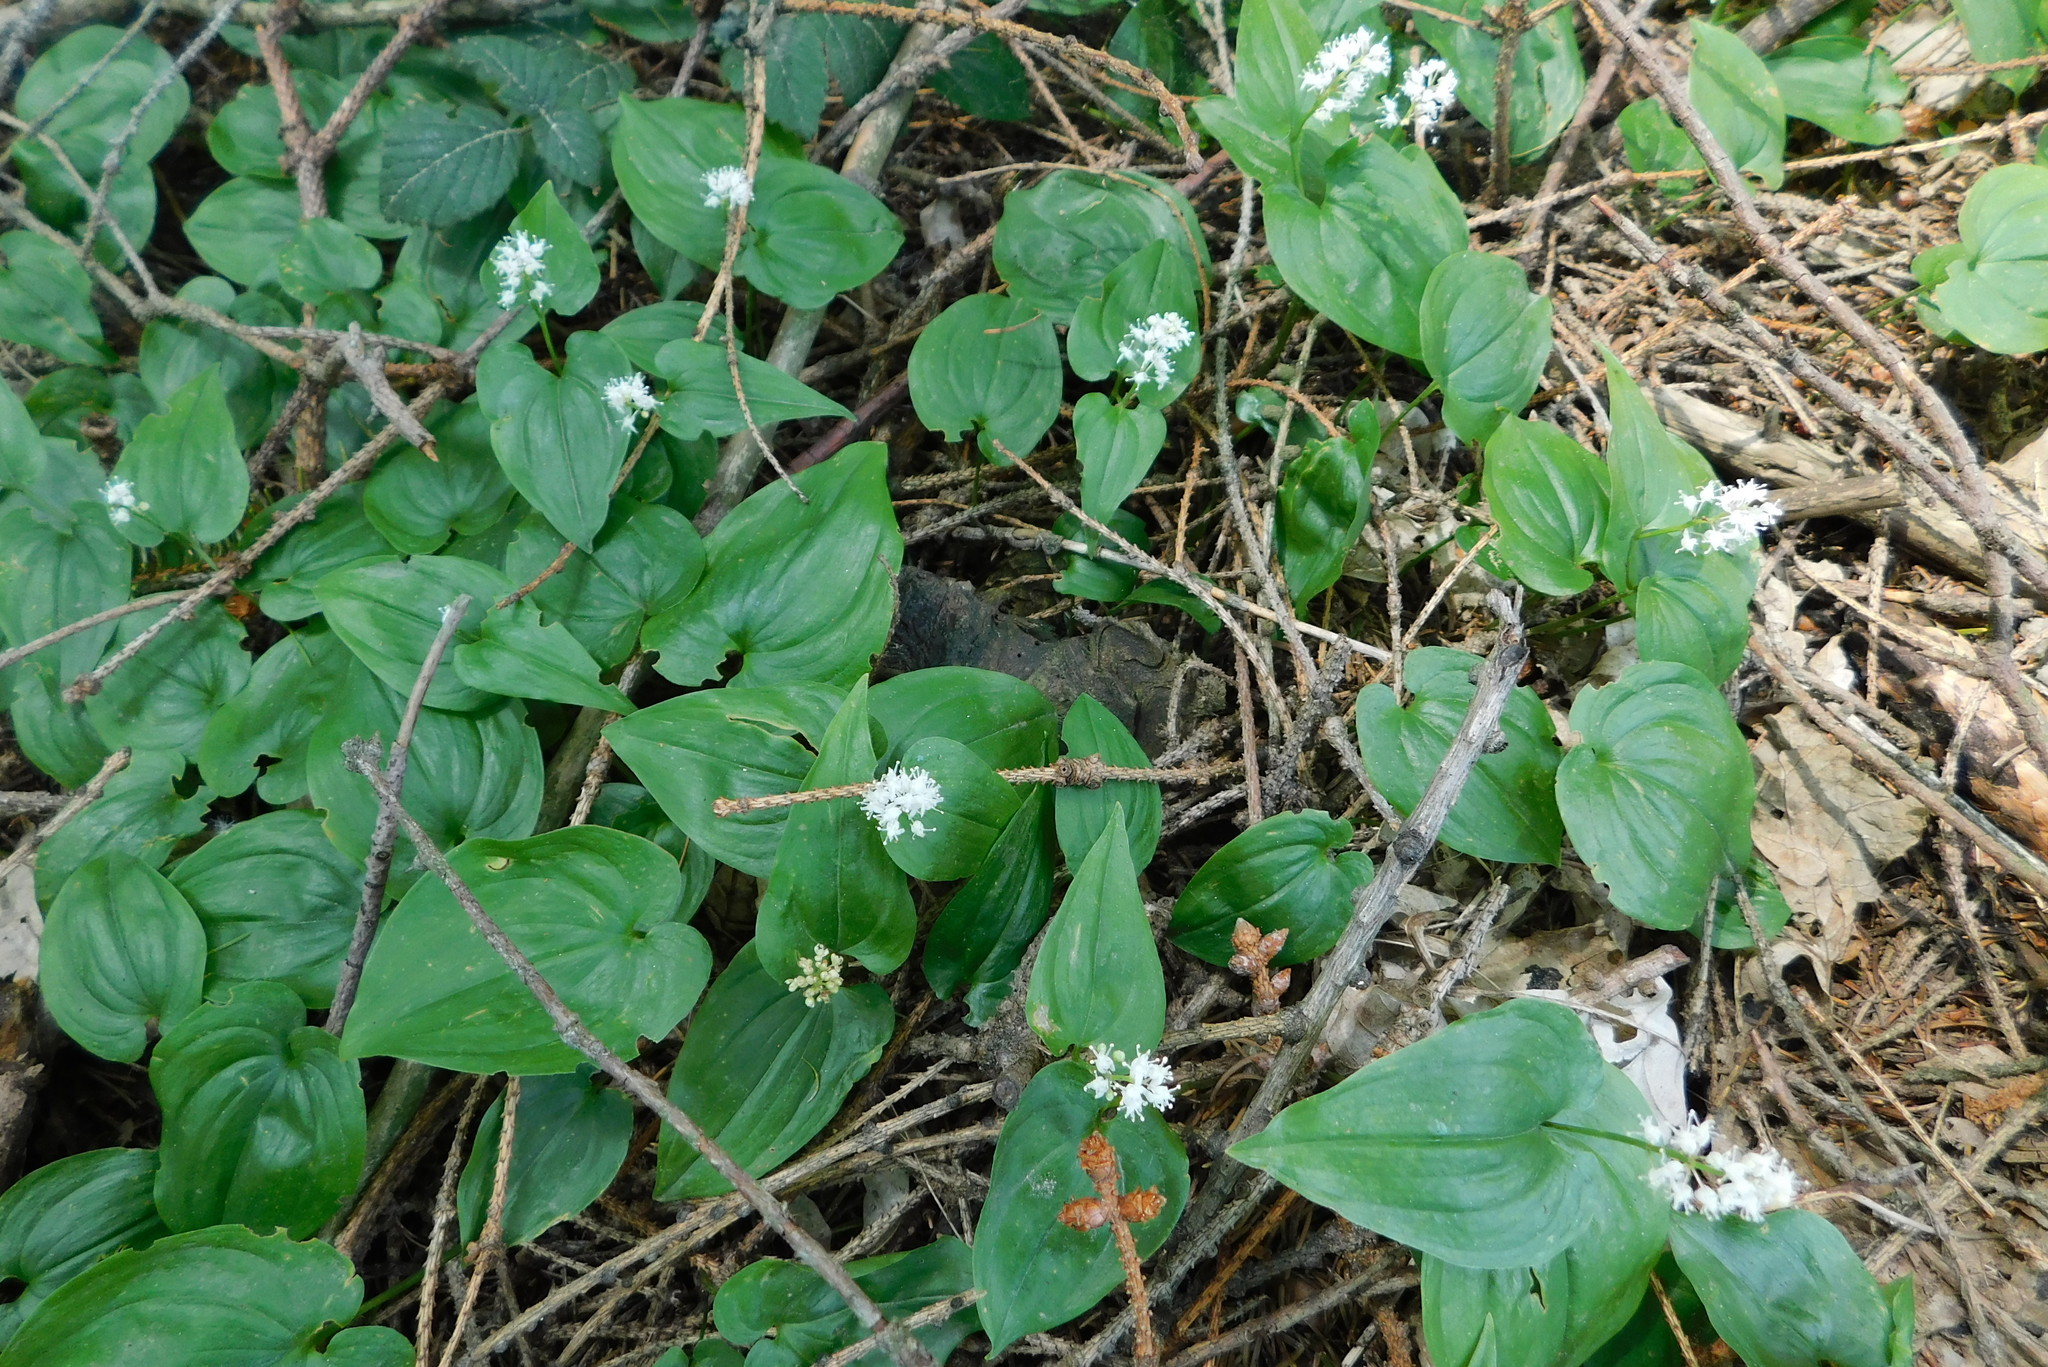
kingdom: Plantae
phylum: Tracheophyta
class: Liliopsida
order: Asparagales
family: Asparagaceae
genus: Maianthemum
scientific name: Maianthemum bifolium
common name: May lily
